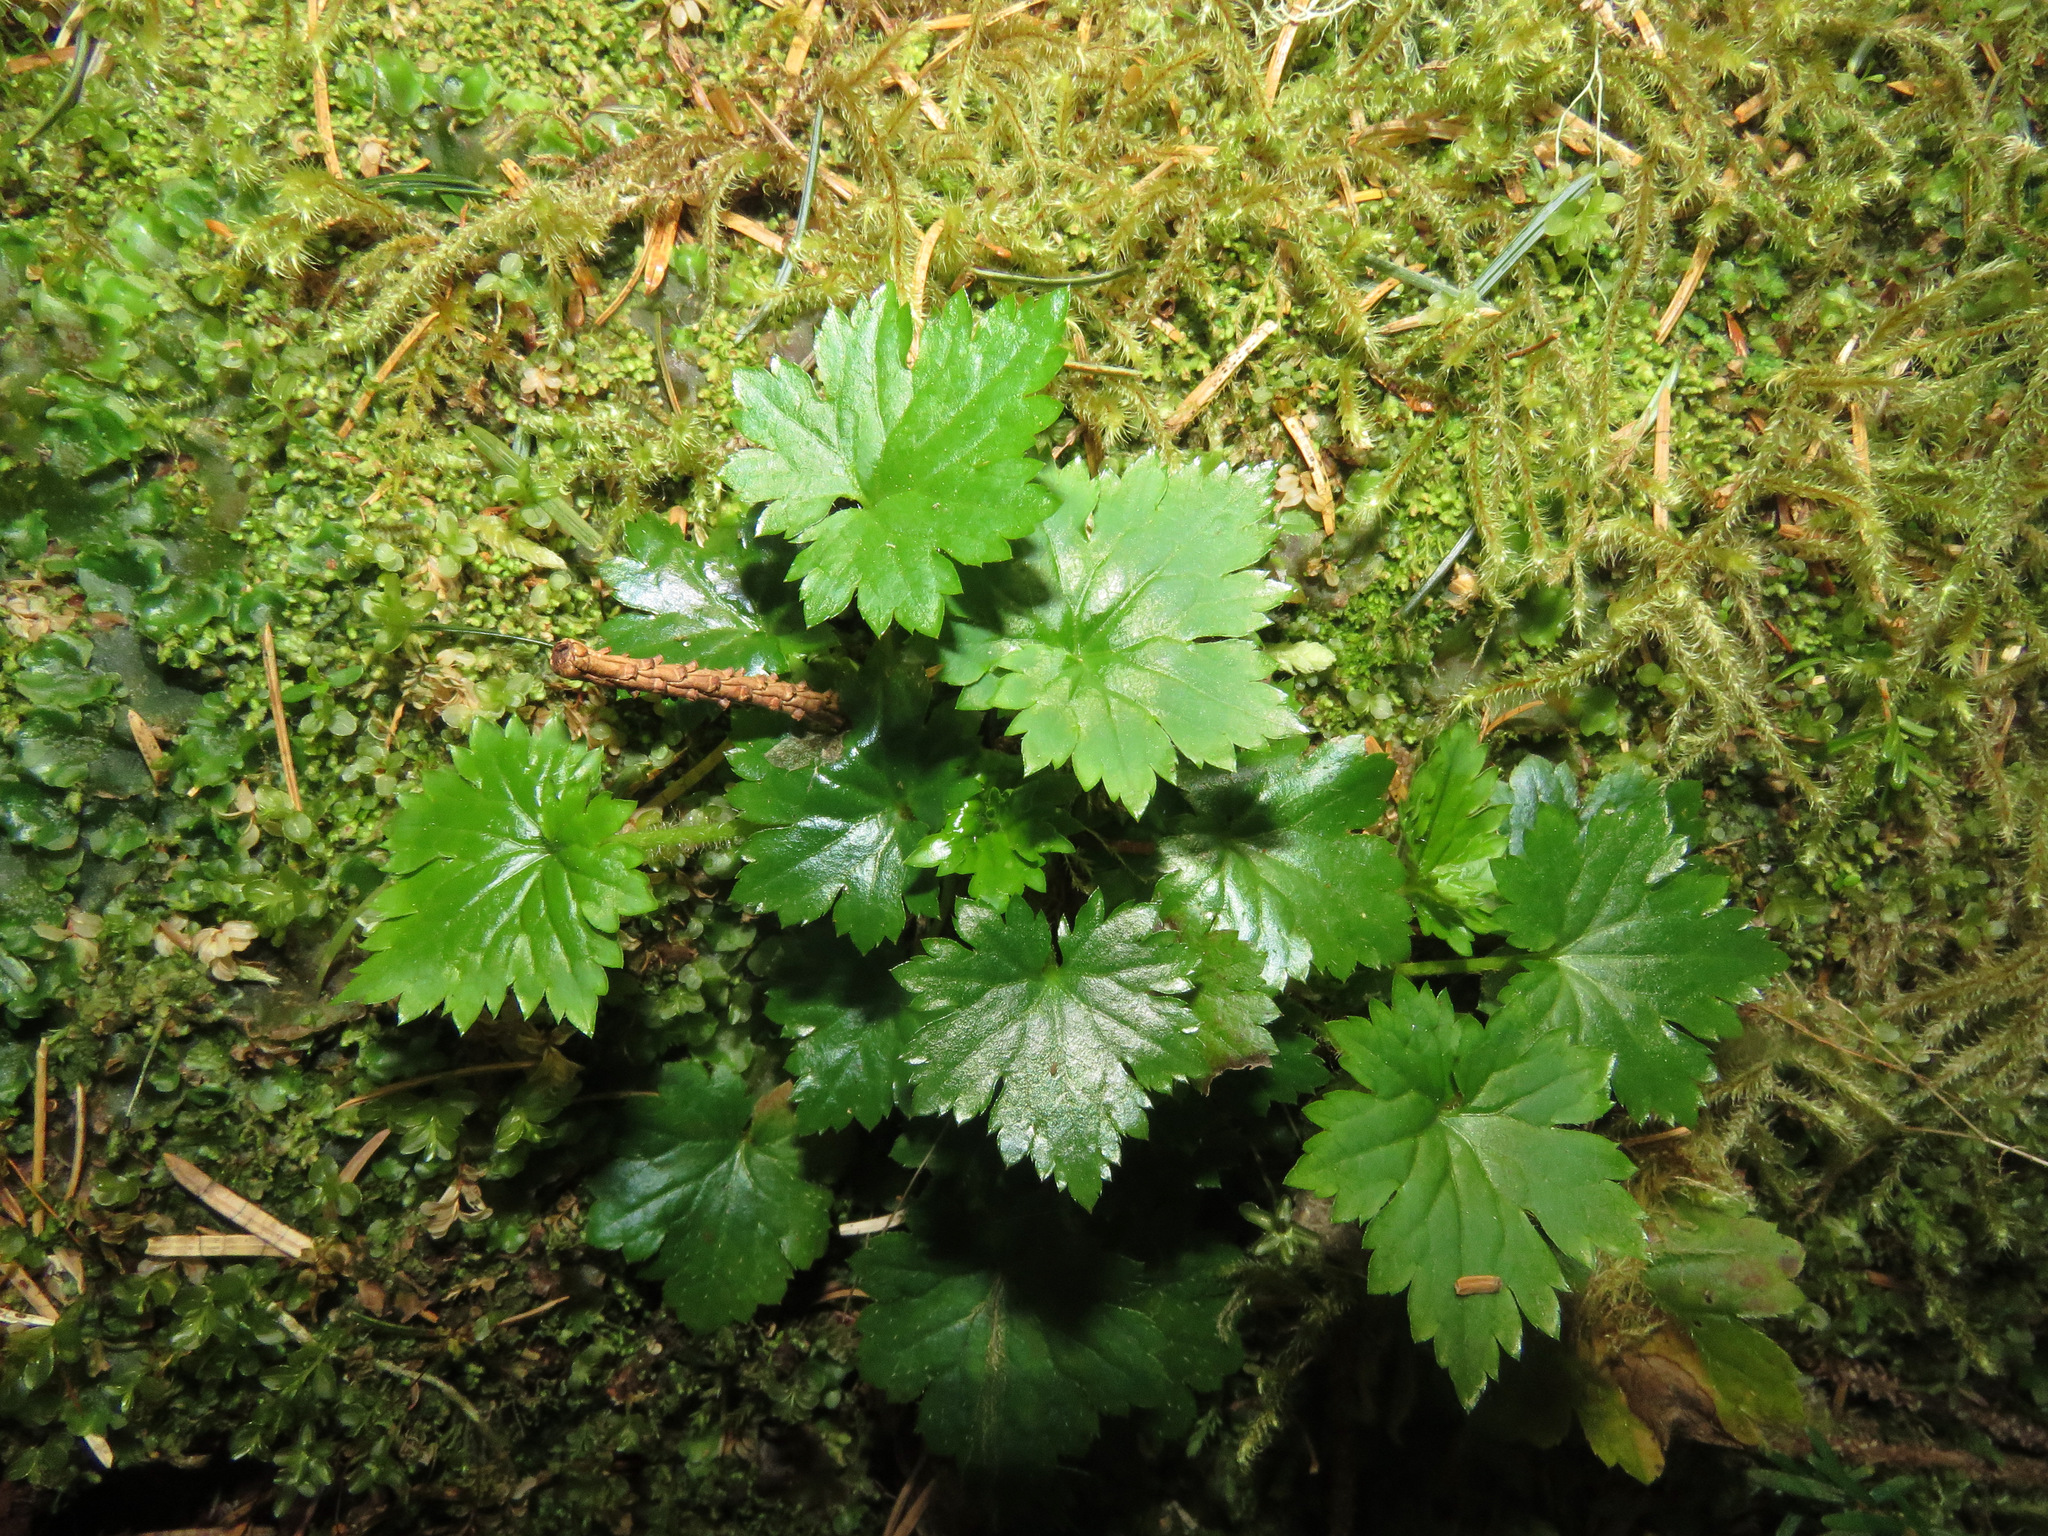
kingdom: Plantae
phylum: Tracheophyta
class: Magnoliopsida
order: Saxifragales
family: Saxifragaceae
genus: Boykinia
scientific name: Boykinia occidentalis
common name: Coast boykinia
